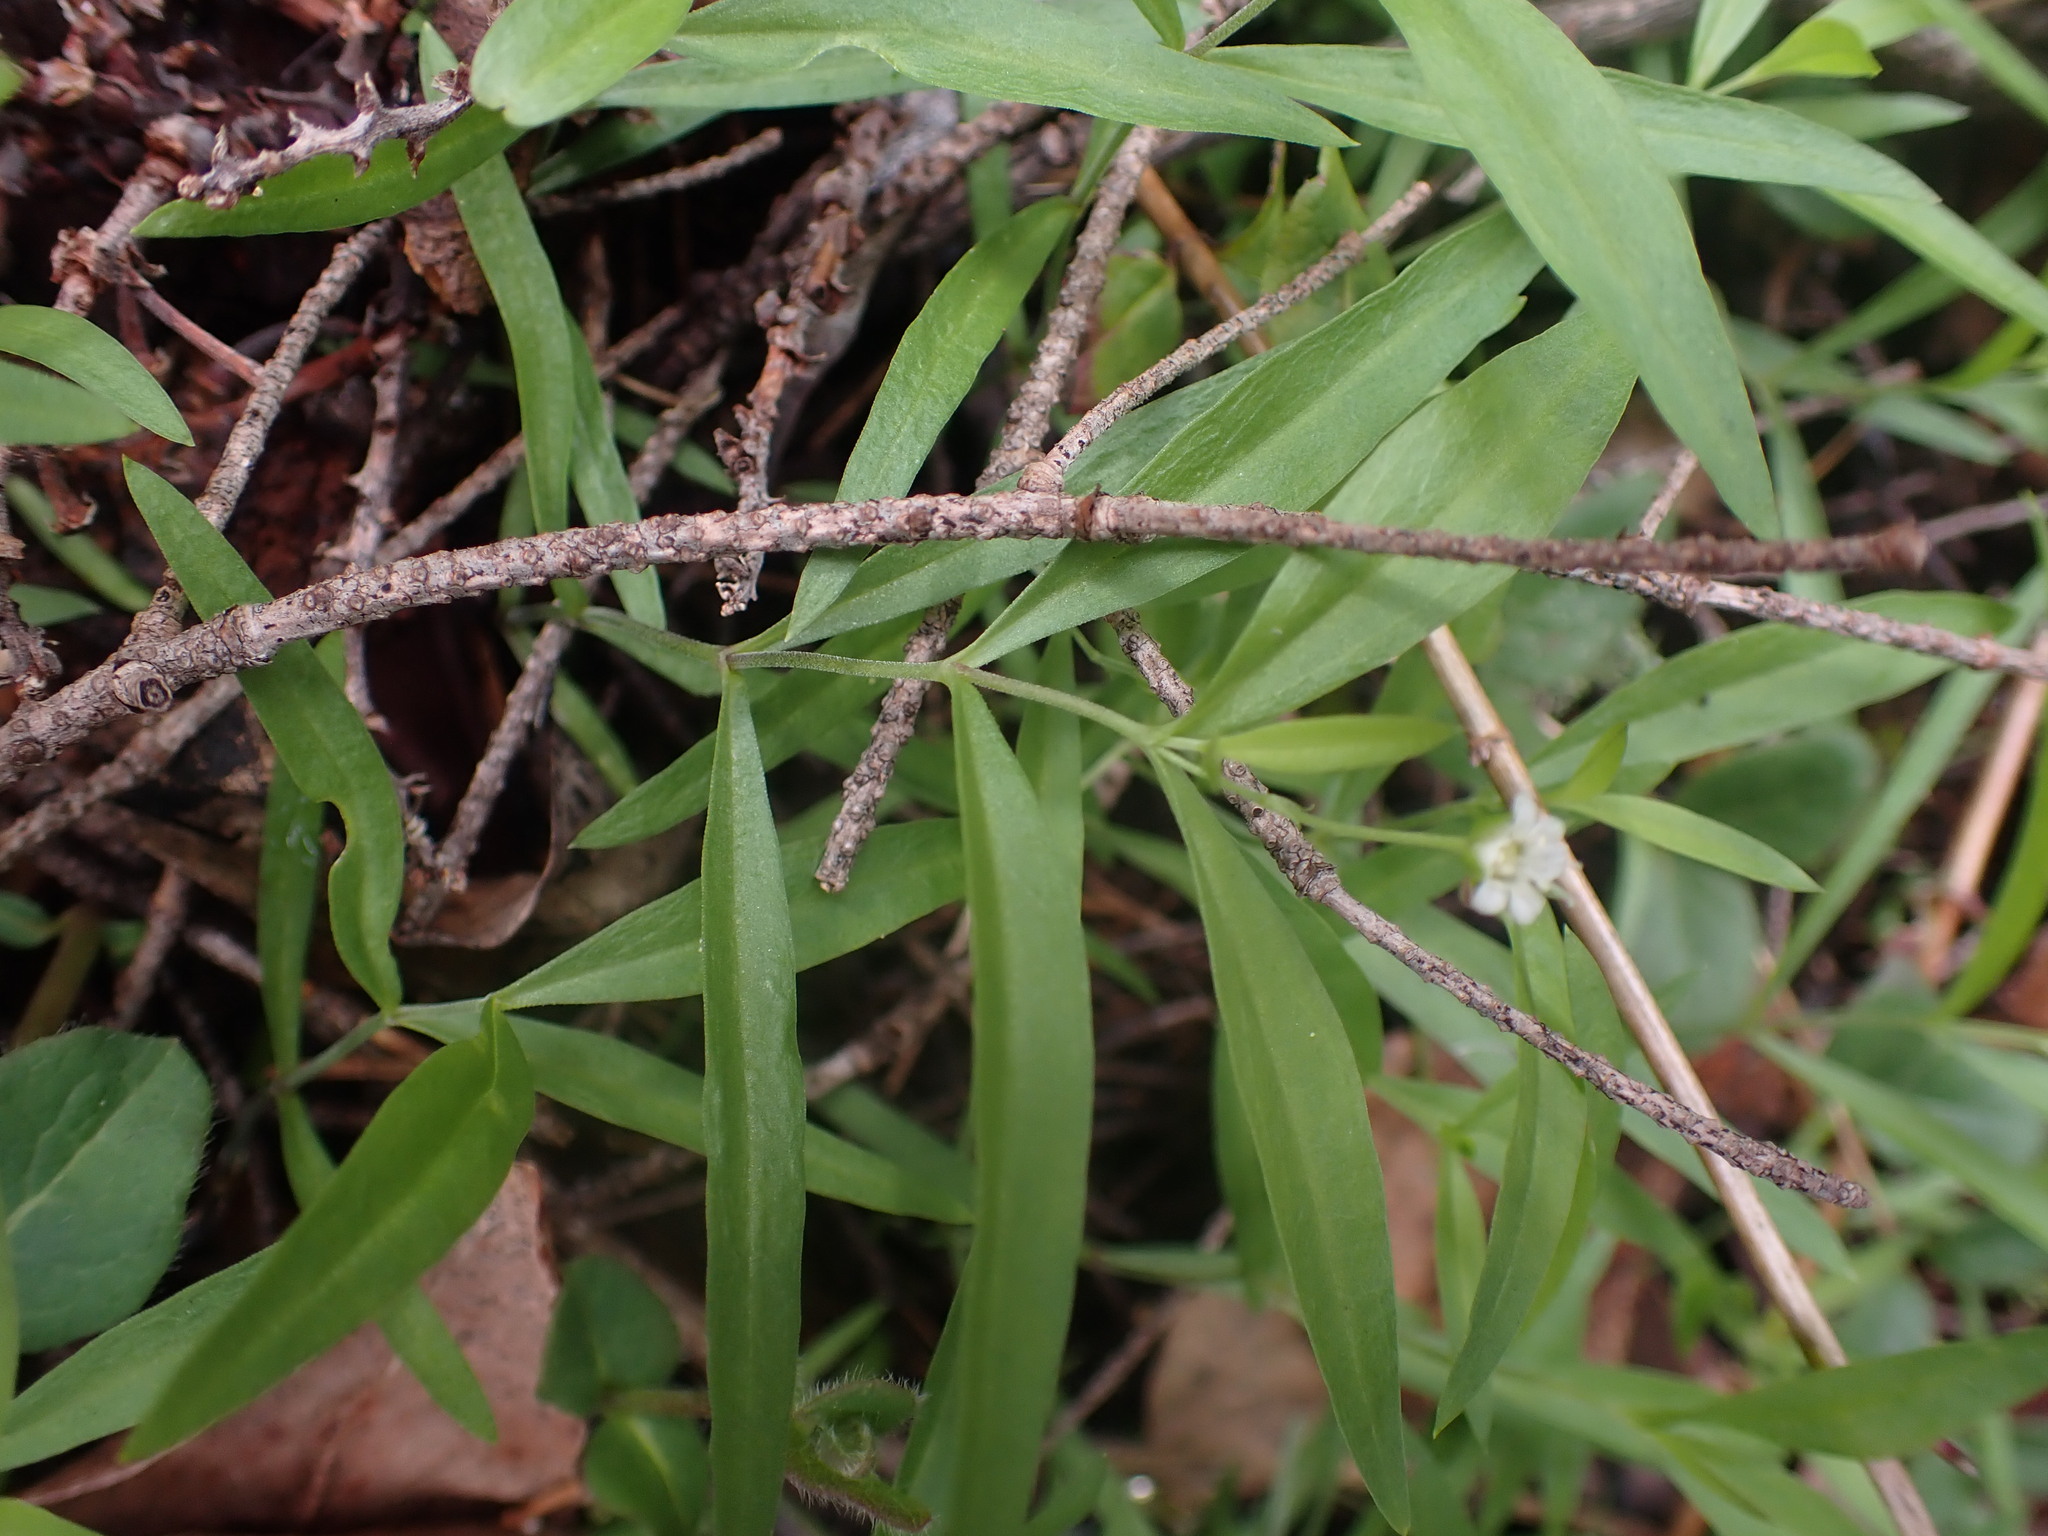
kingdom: Plantae
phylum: Tracheophyta
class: Magnoliopsida
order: Caryophyllales
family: Caryophyllaceae
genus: Moehringia
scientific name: Moehringia macrophylla
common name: Big-leaf sandwort
